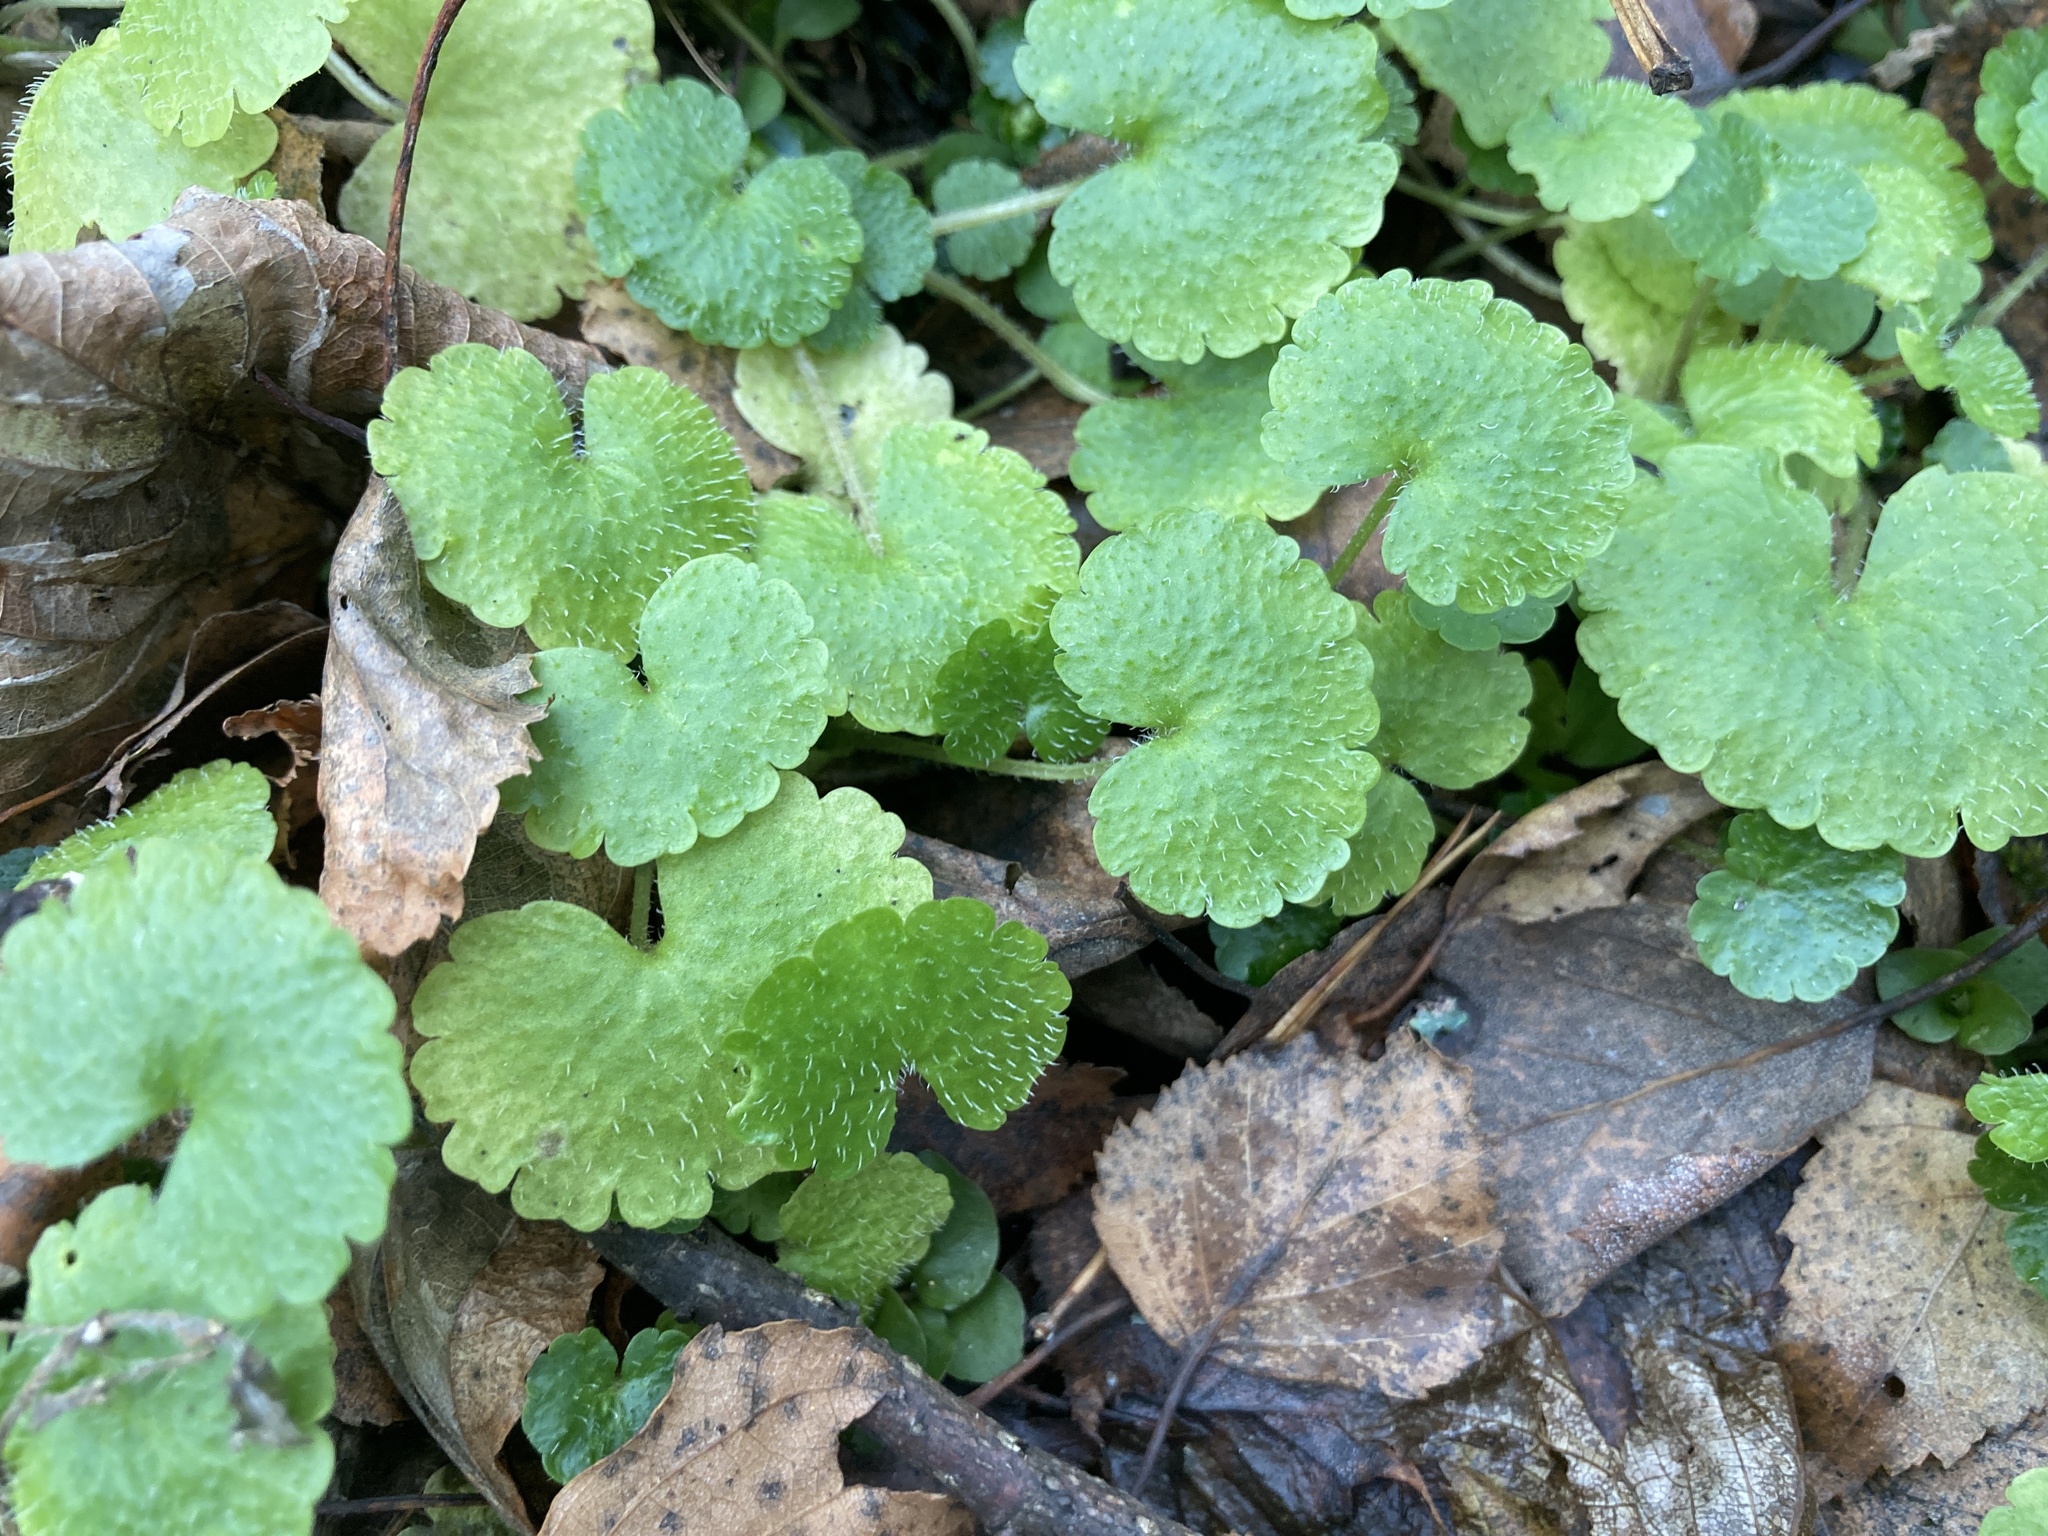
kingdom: Plantae
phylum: Tracheophyta
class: Magnoliopsida
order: Saxifragales
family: Saxifragaceae
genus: Chrysosplenium
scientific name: Chrysosplenium alternifolium
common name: Alternate-leaved golden-saxifrage
